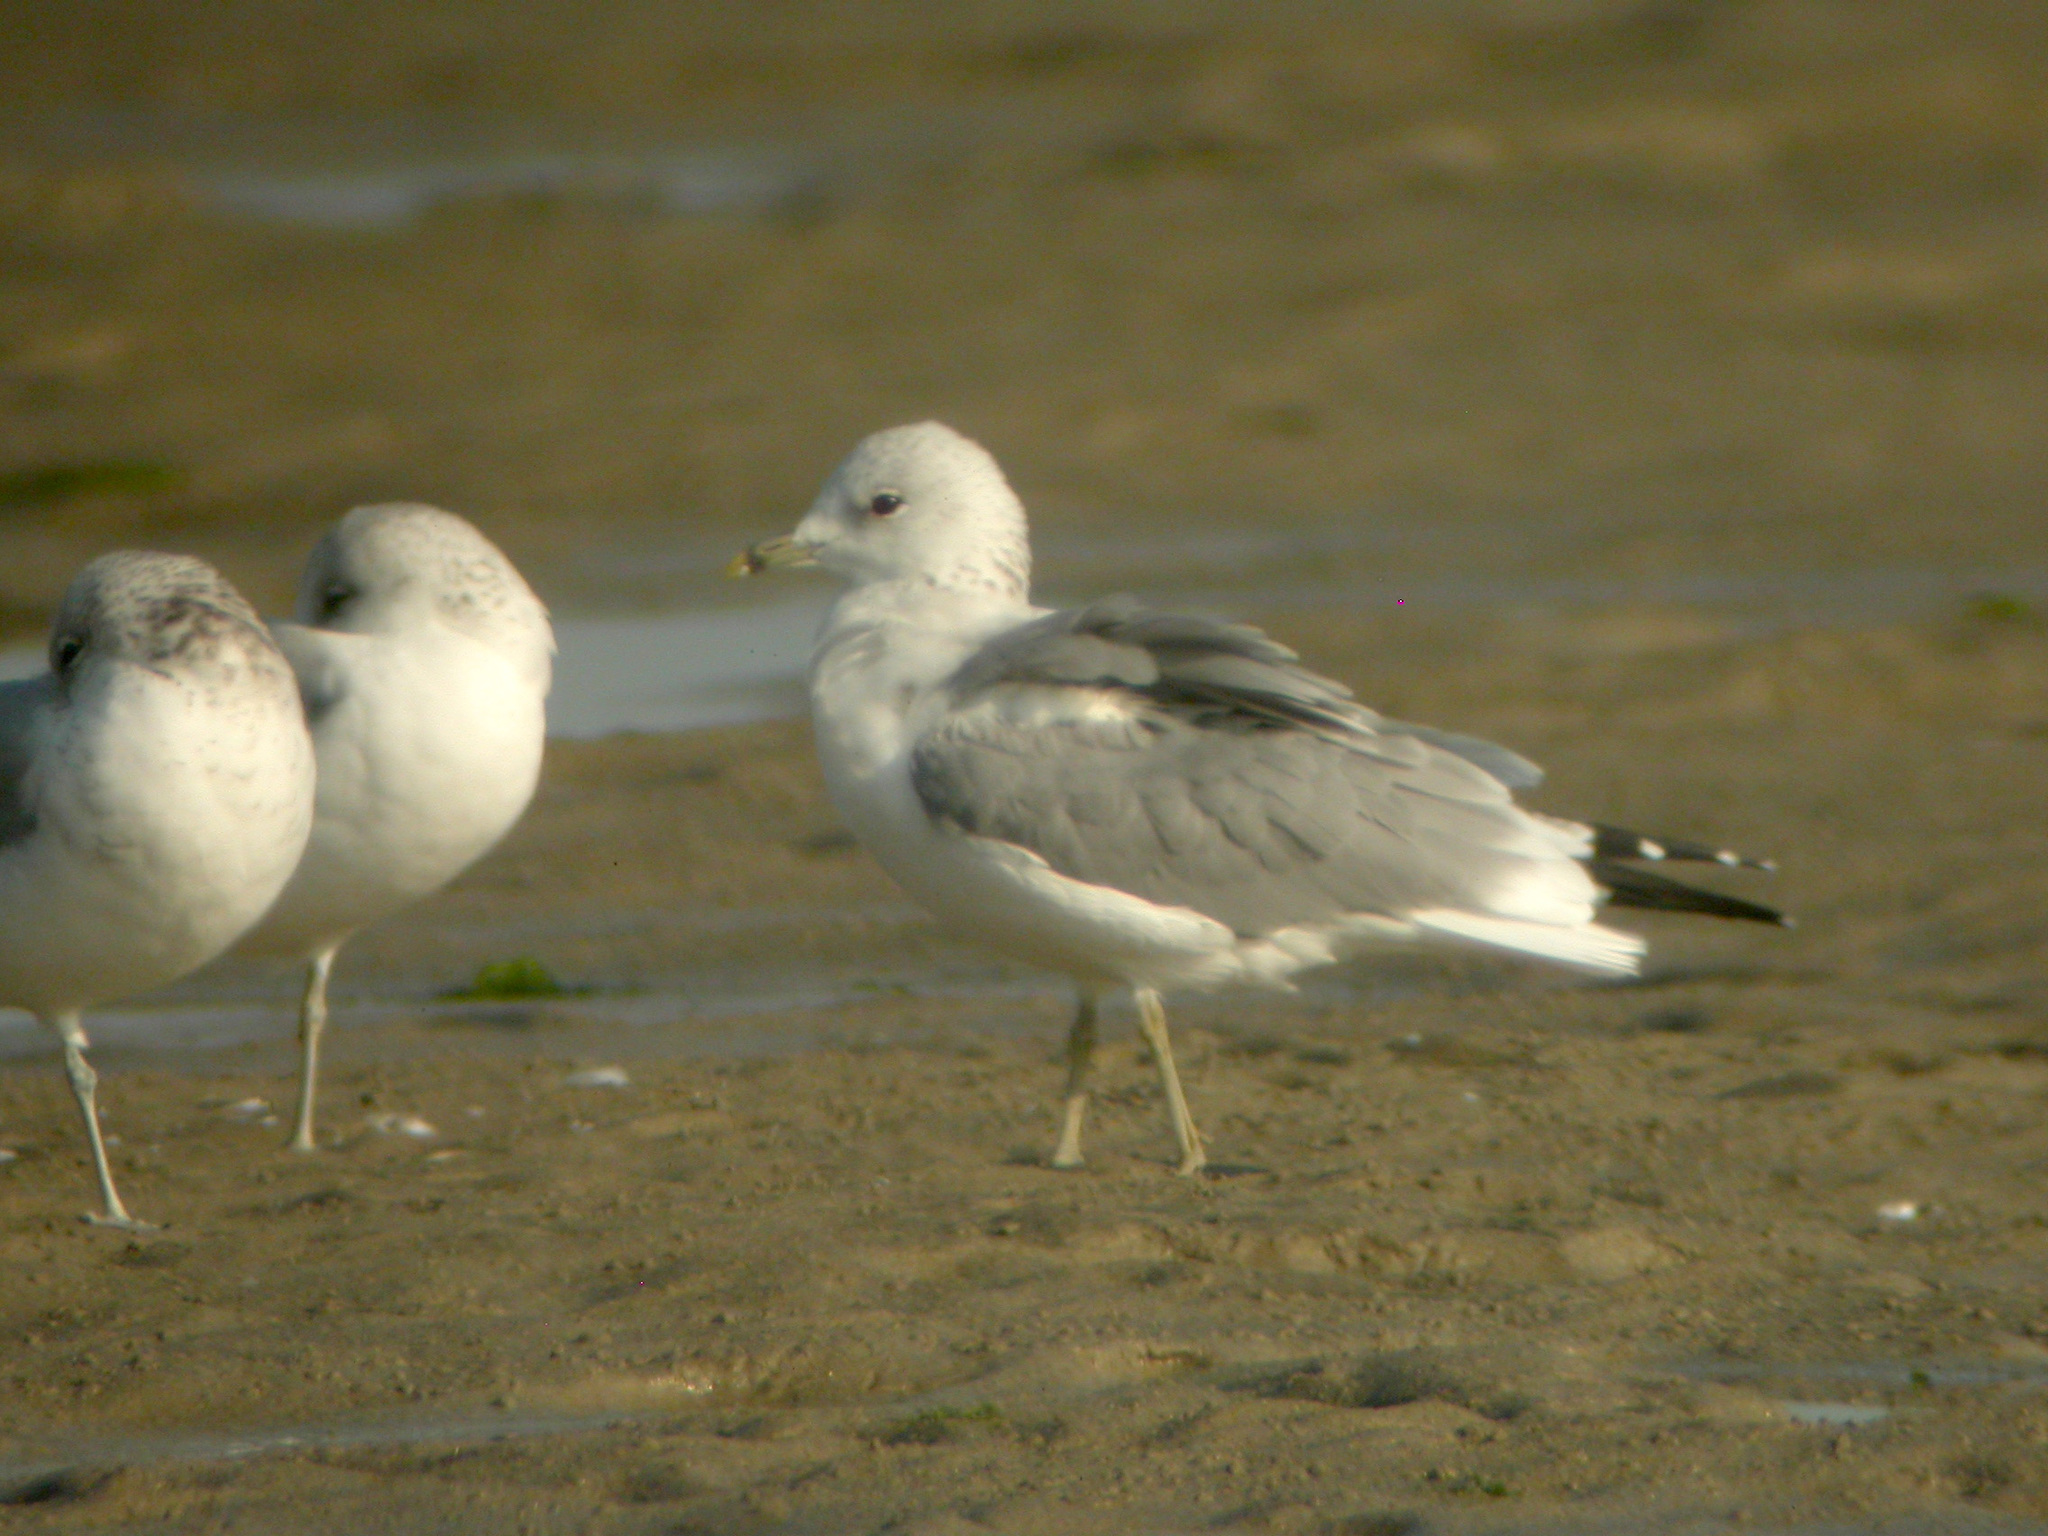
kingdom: Animalia
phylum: Chordata
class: Aves
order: Charadriiformes
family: Laridae
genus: Larus
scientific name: Larus canus
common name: Mew gull
